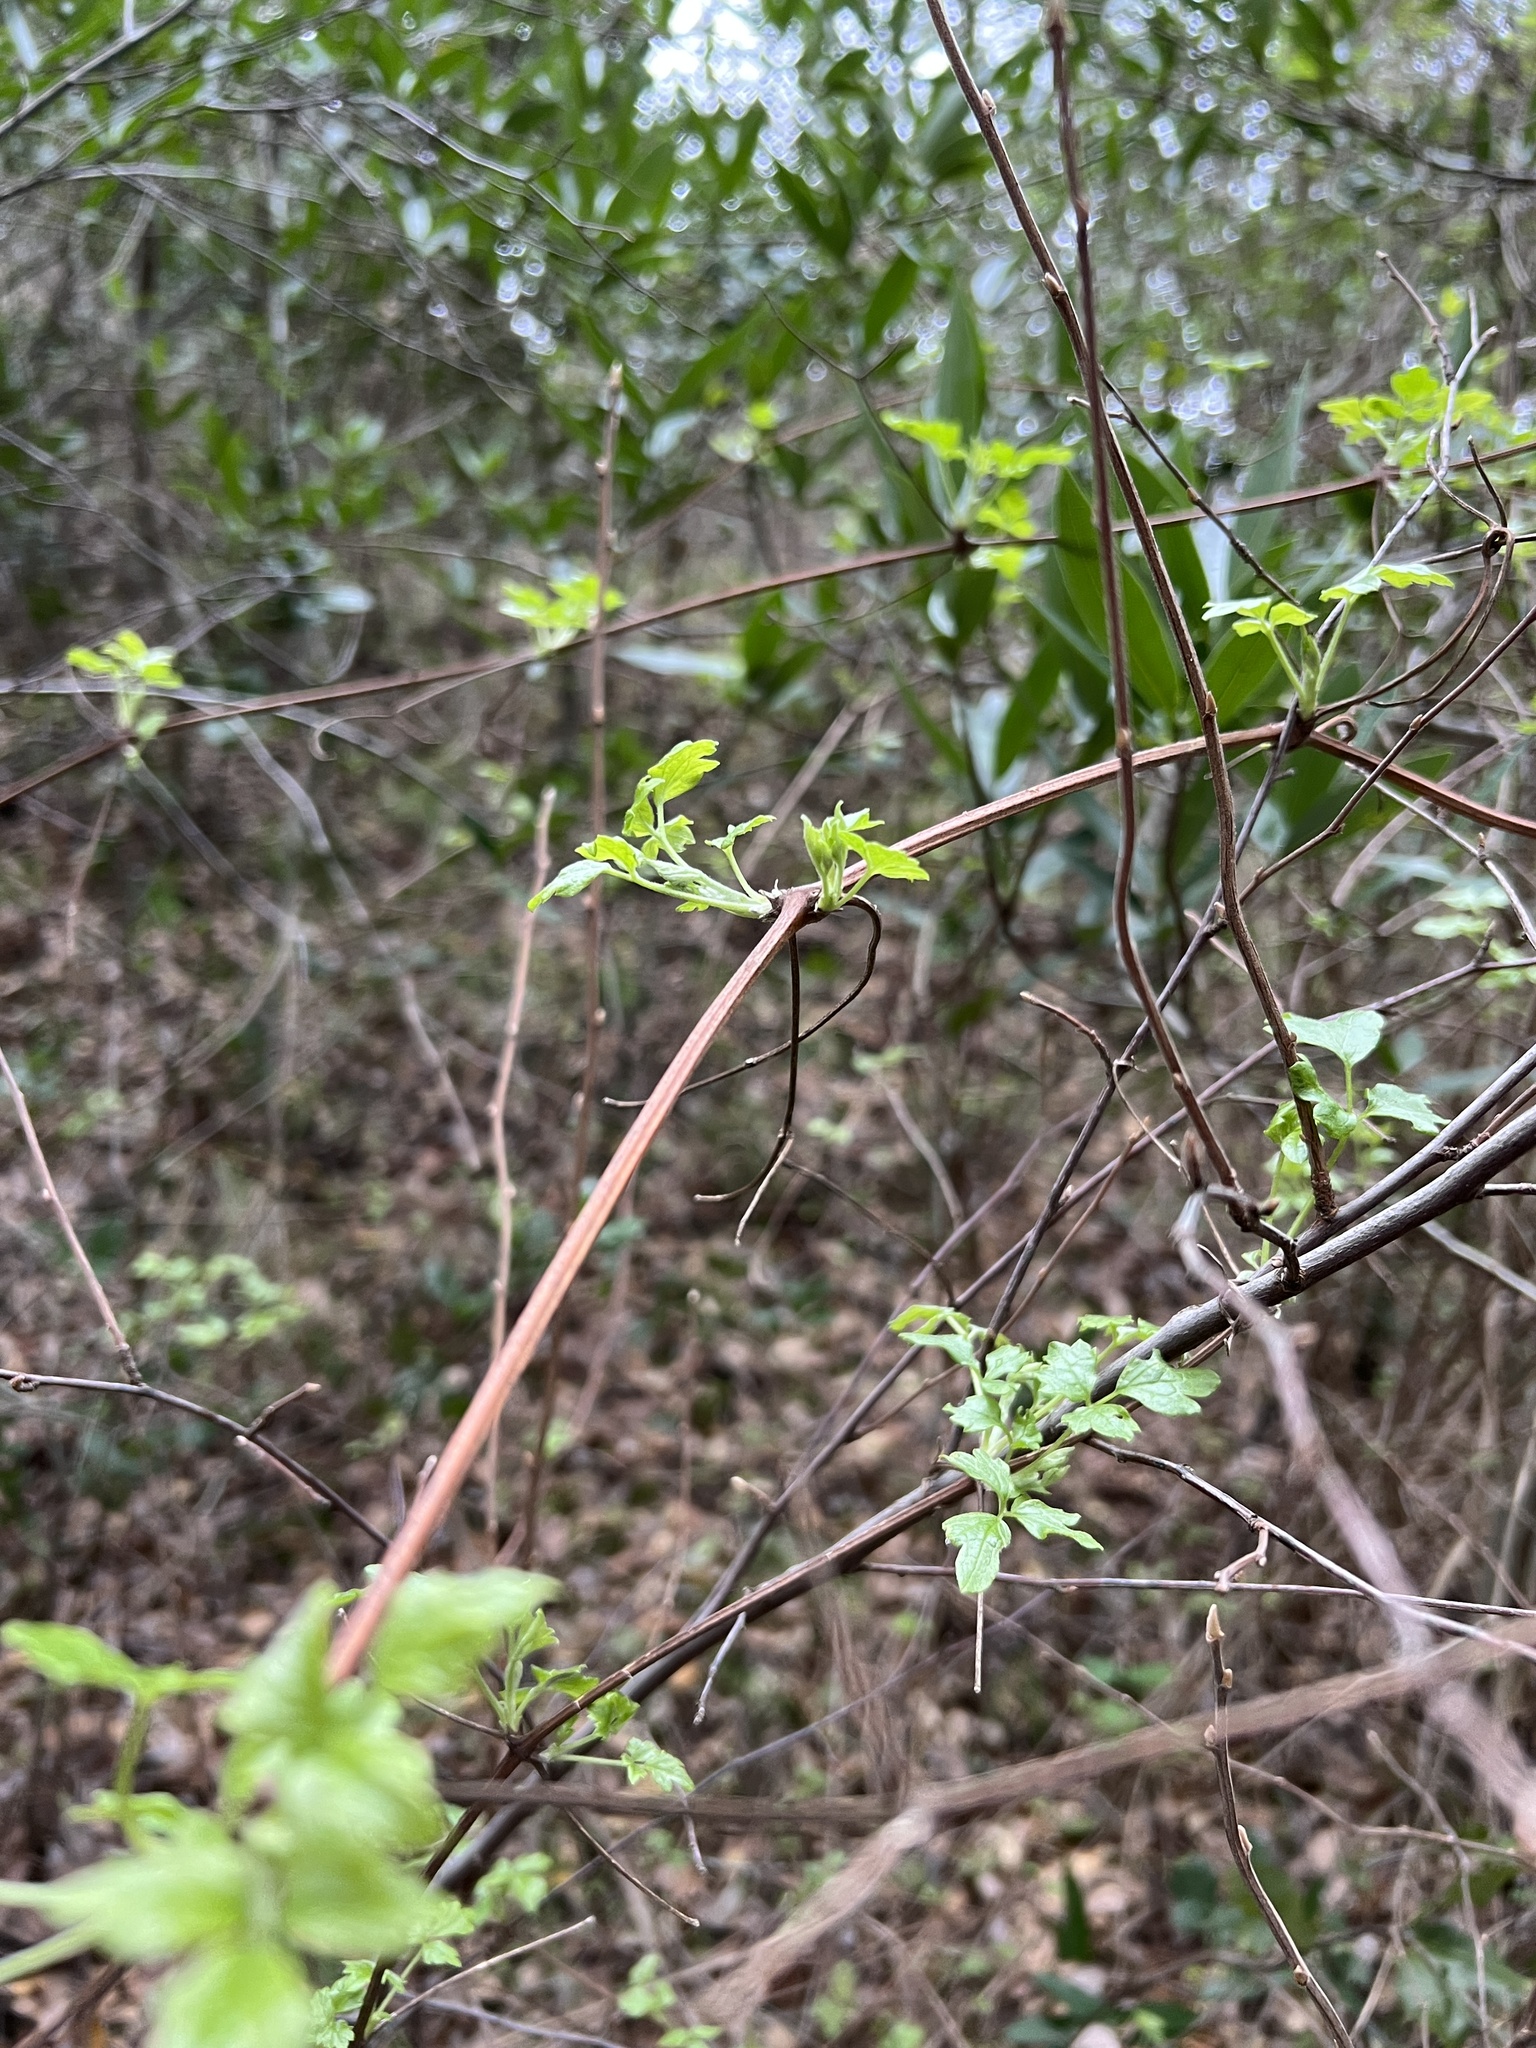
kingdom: Plantae
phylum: Tracheophyta
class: Magnoliopsida
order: Ranunculales
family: Ranunculaceae
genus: Clematis
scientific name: Clematis lasiantha
